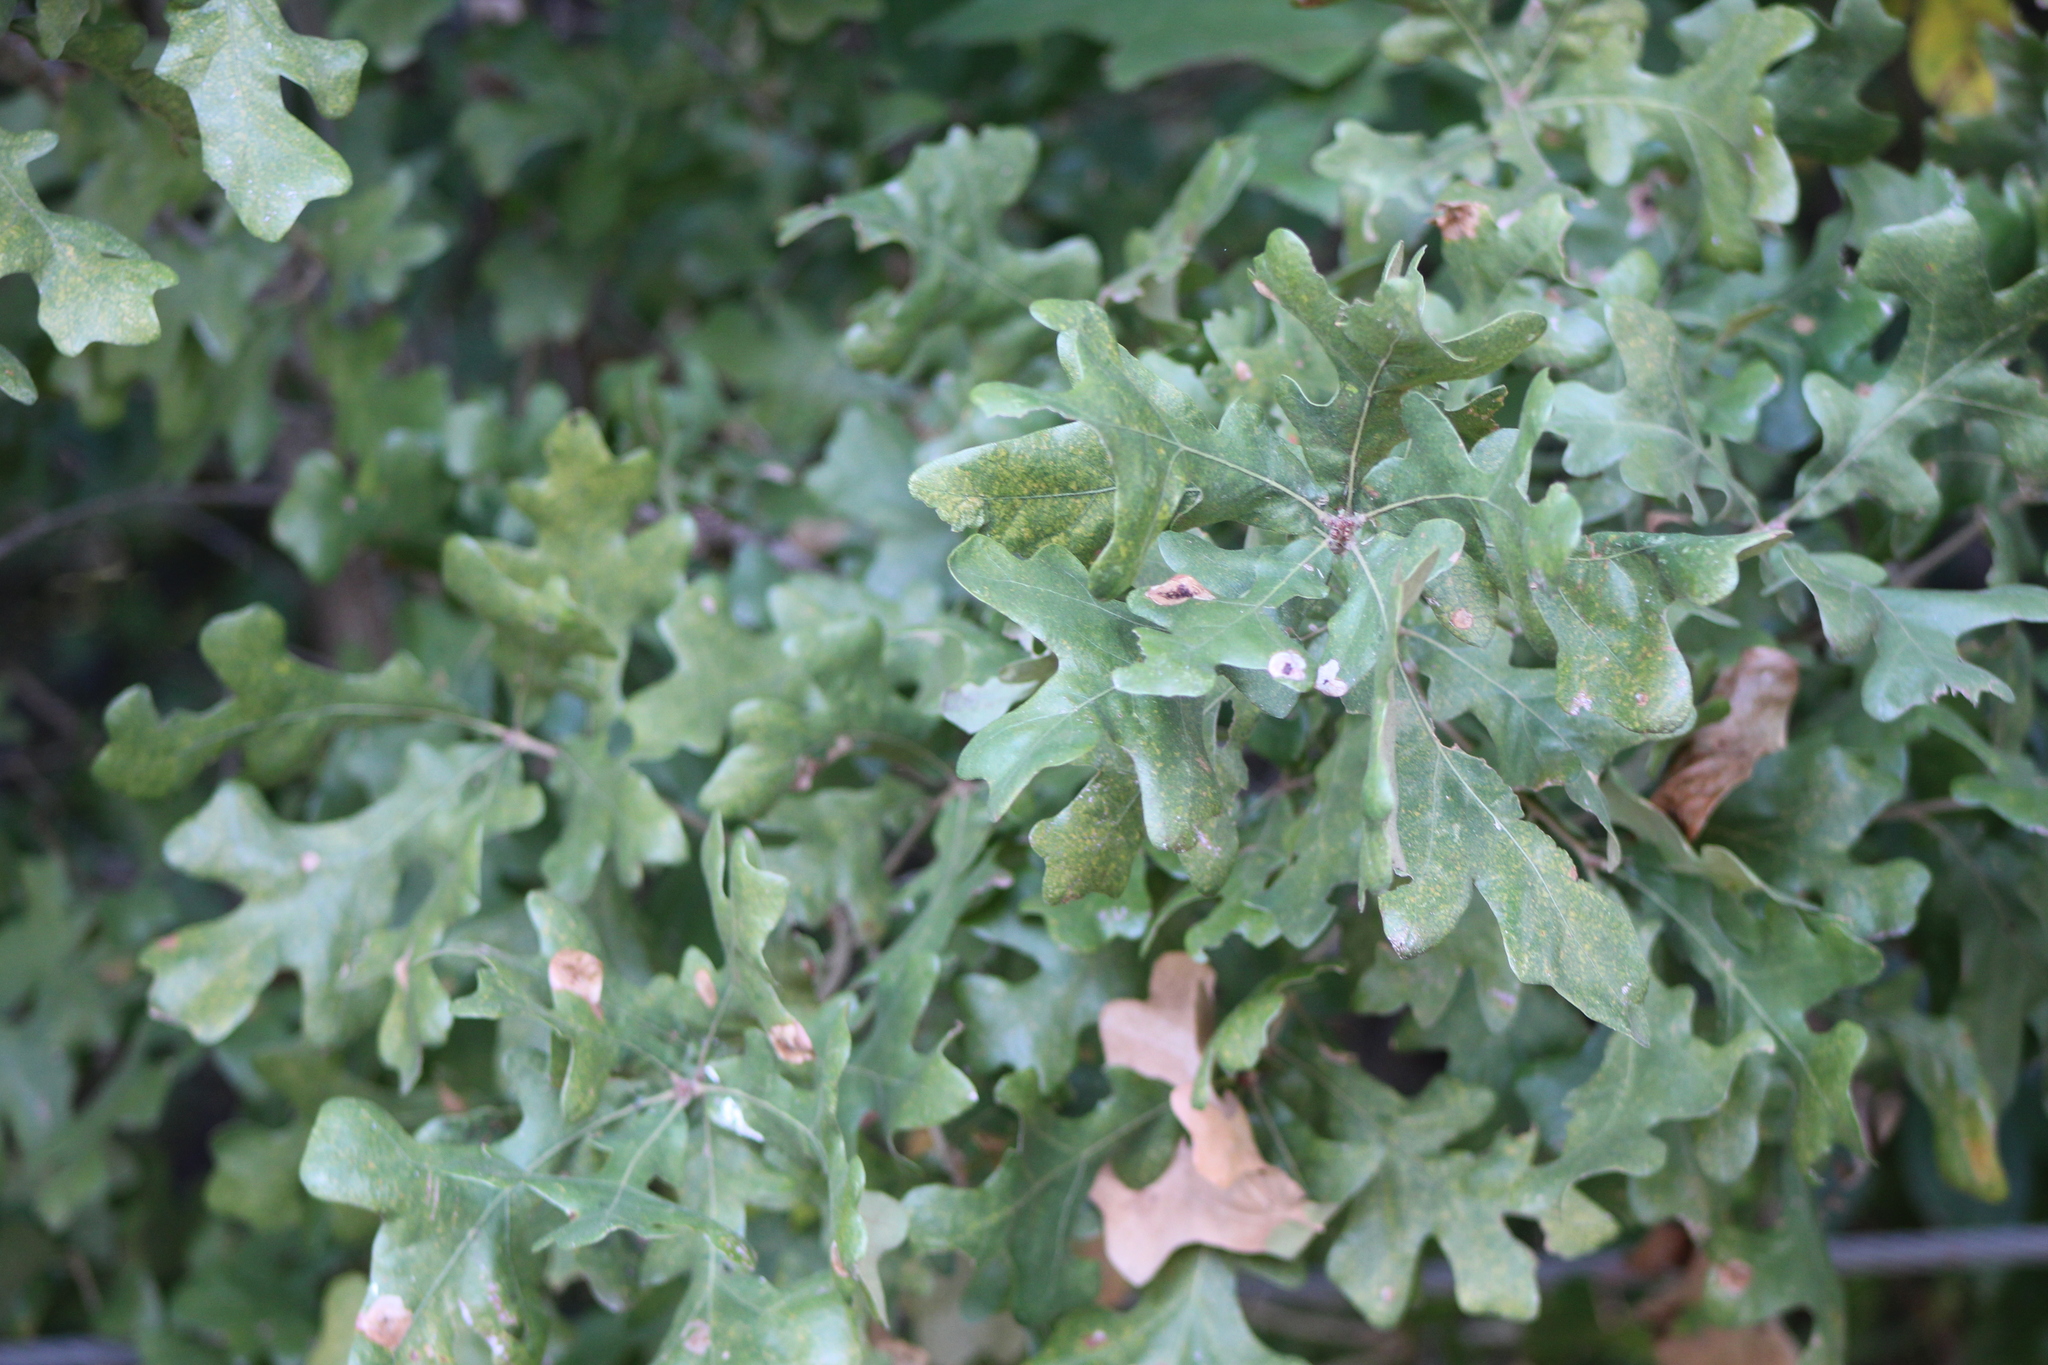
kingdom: Plantae
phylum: Tracheophyta
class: Magnoliopsida
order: Fagales
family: Fagaceae
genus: Quercus
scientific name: Quercus stellata
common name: Post oak
